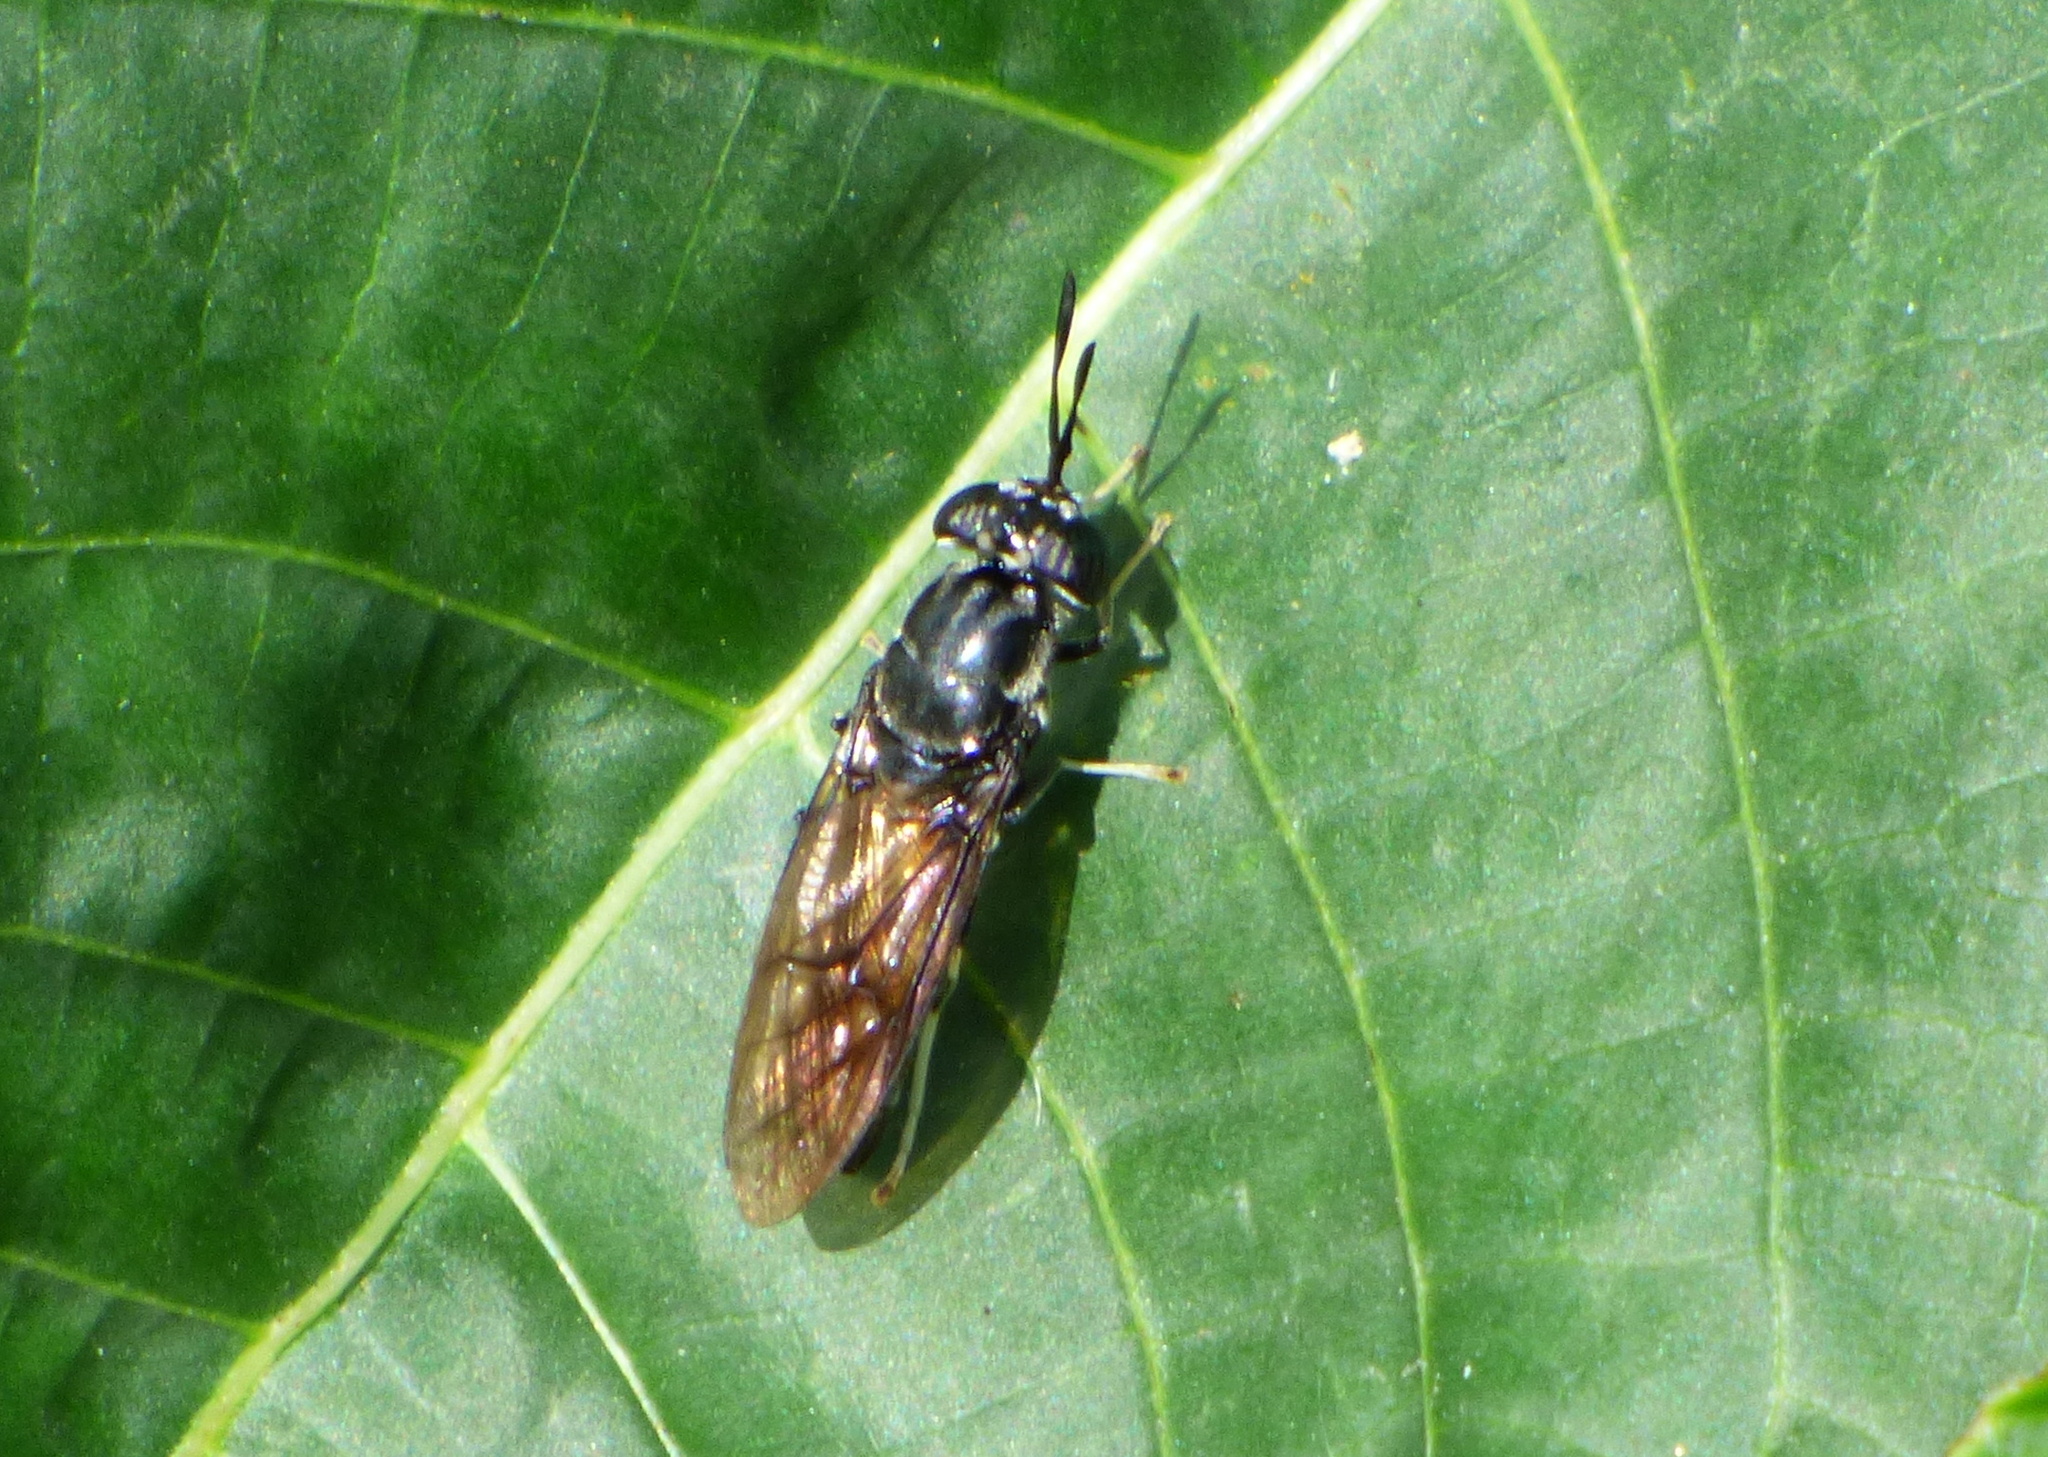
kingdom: Animalia
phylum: Arthropoda
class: Insecta
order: Diptera
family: Stratiomyidae
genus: Hermetia
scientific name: Hermetia illucens
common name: Black soldier fly
